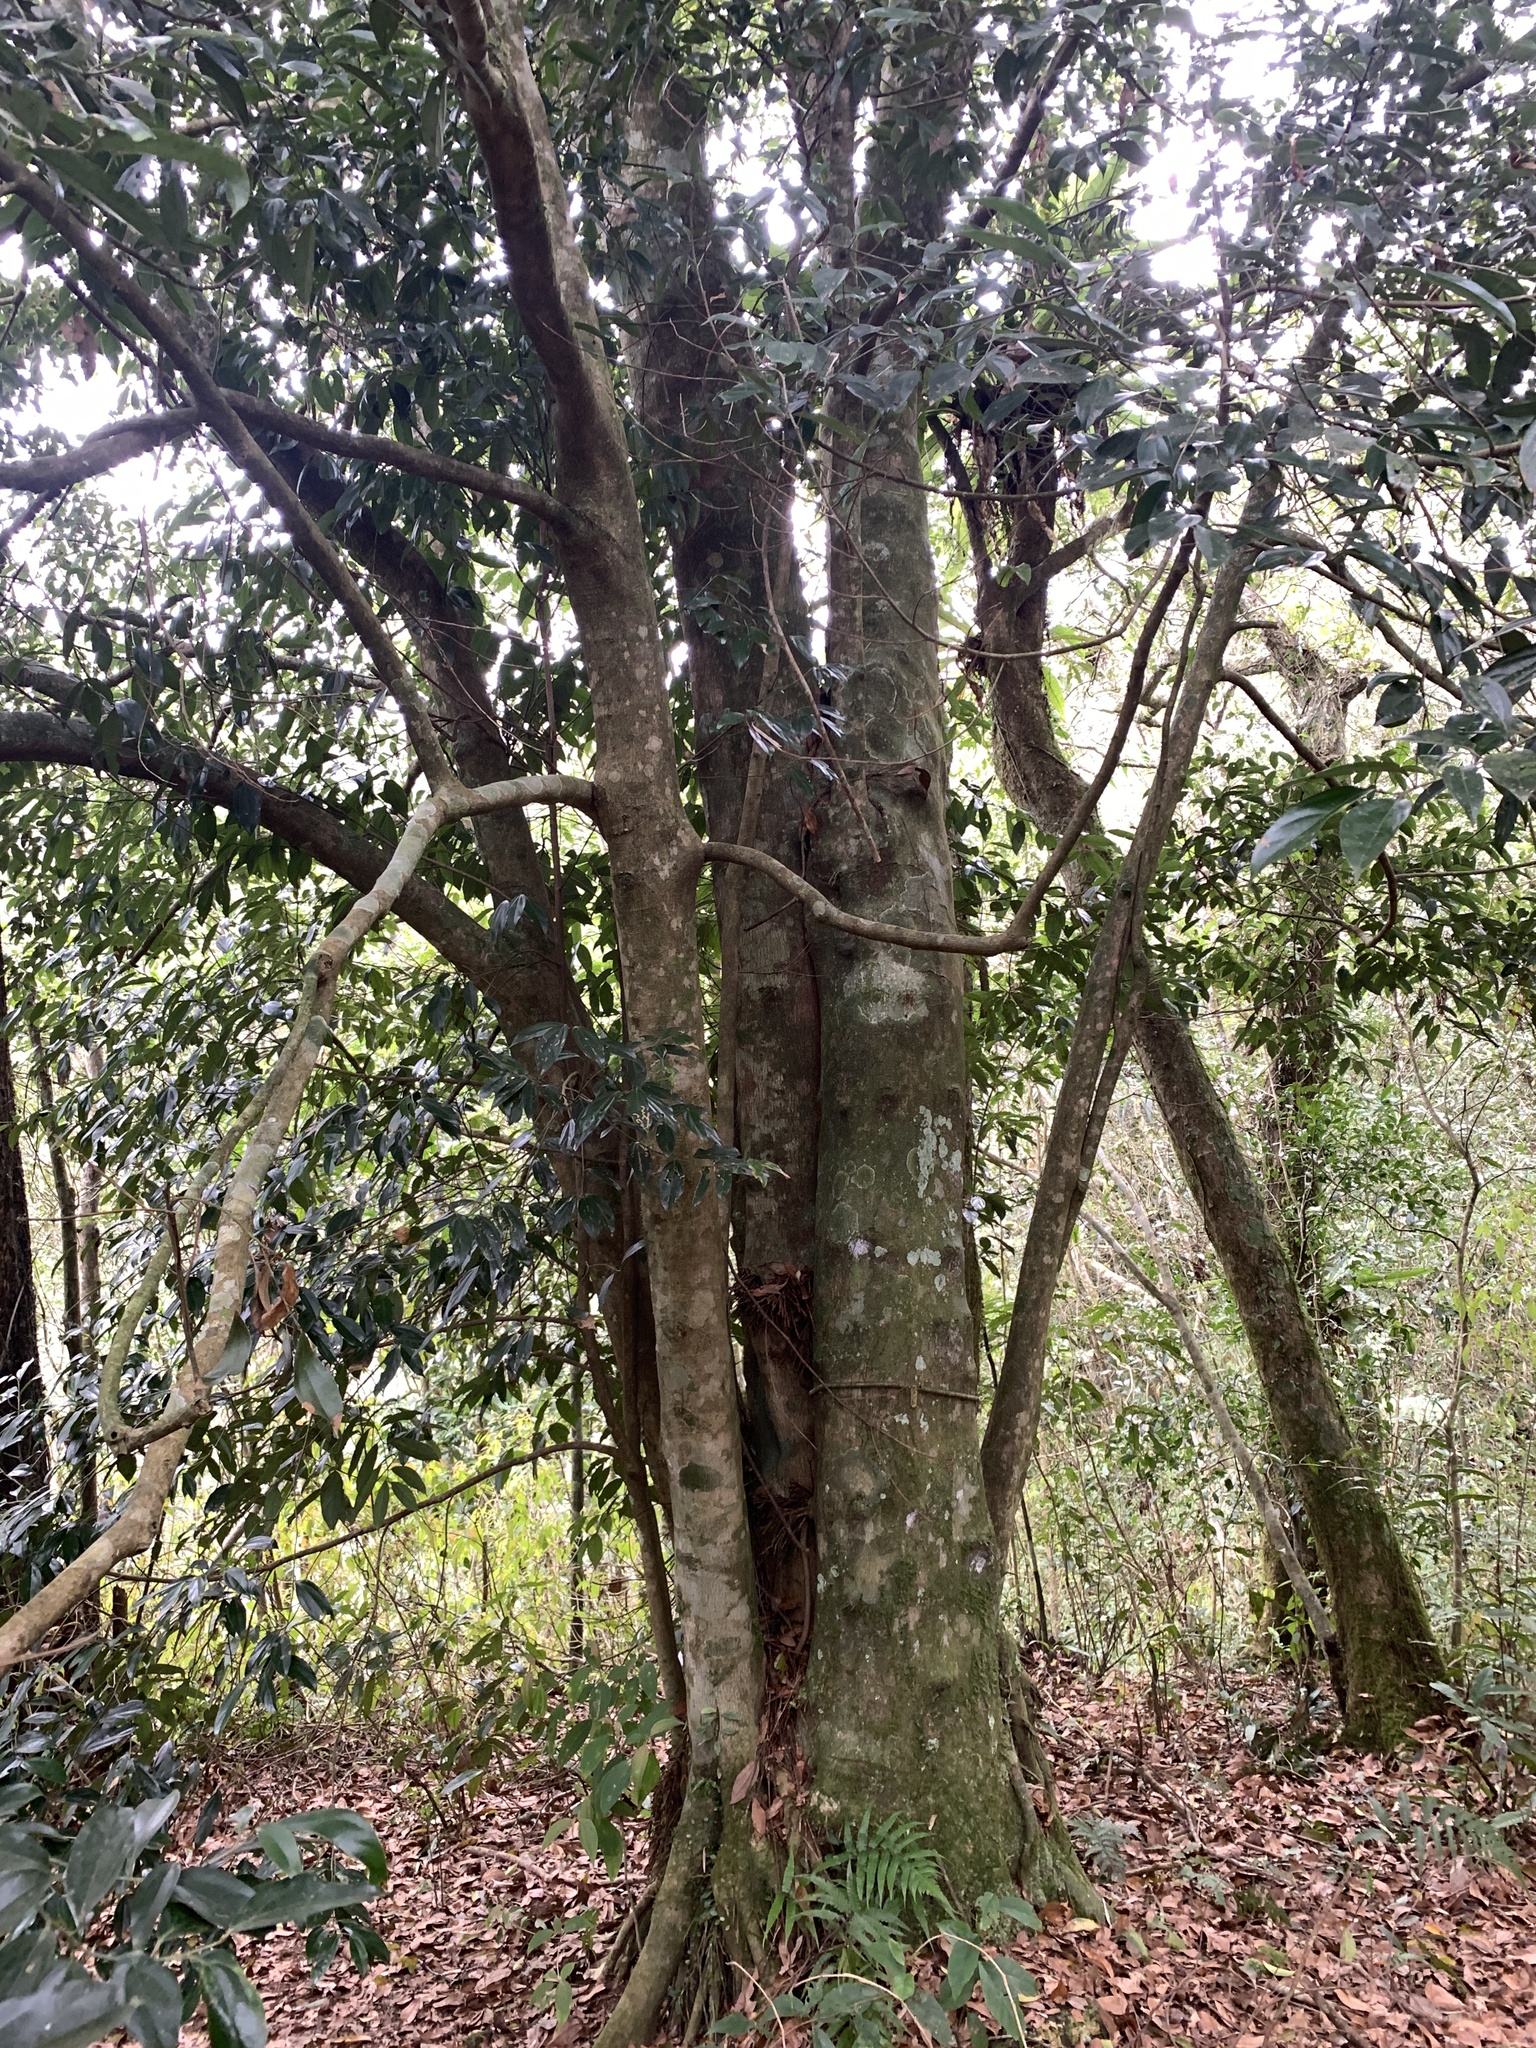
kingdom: Plantae
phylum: Tracheophyta
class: Magnoliopsida
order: Laurales
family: Lauraceae
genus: Cryptocarya
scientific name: Cryptocarya chinensis
